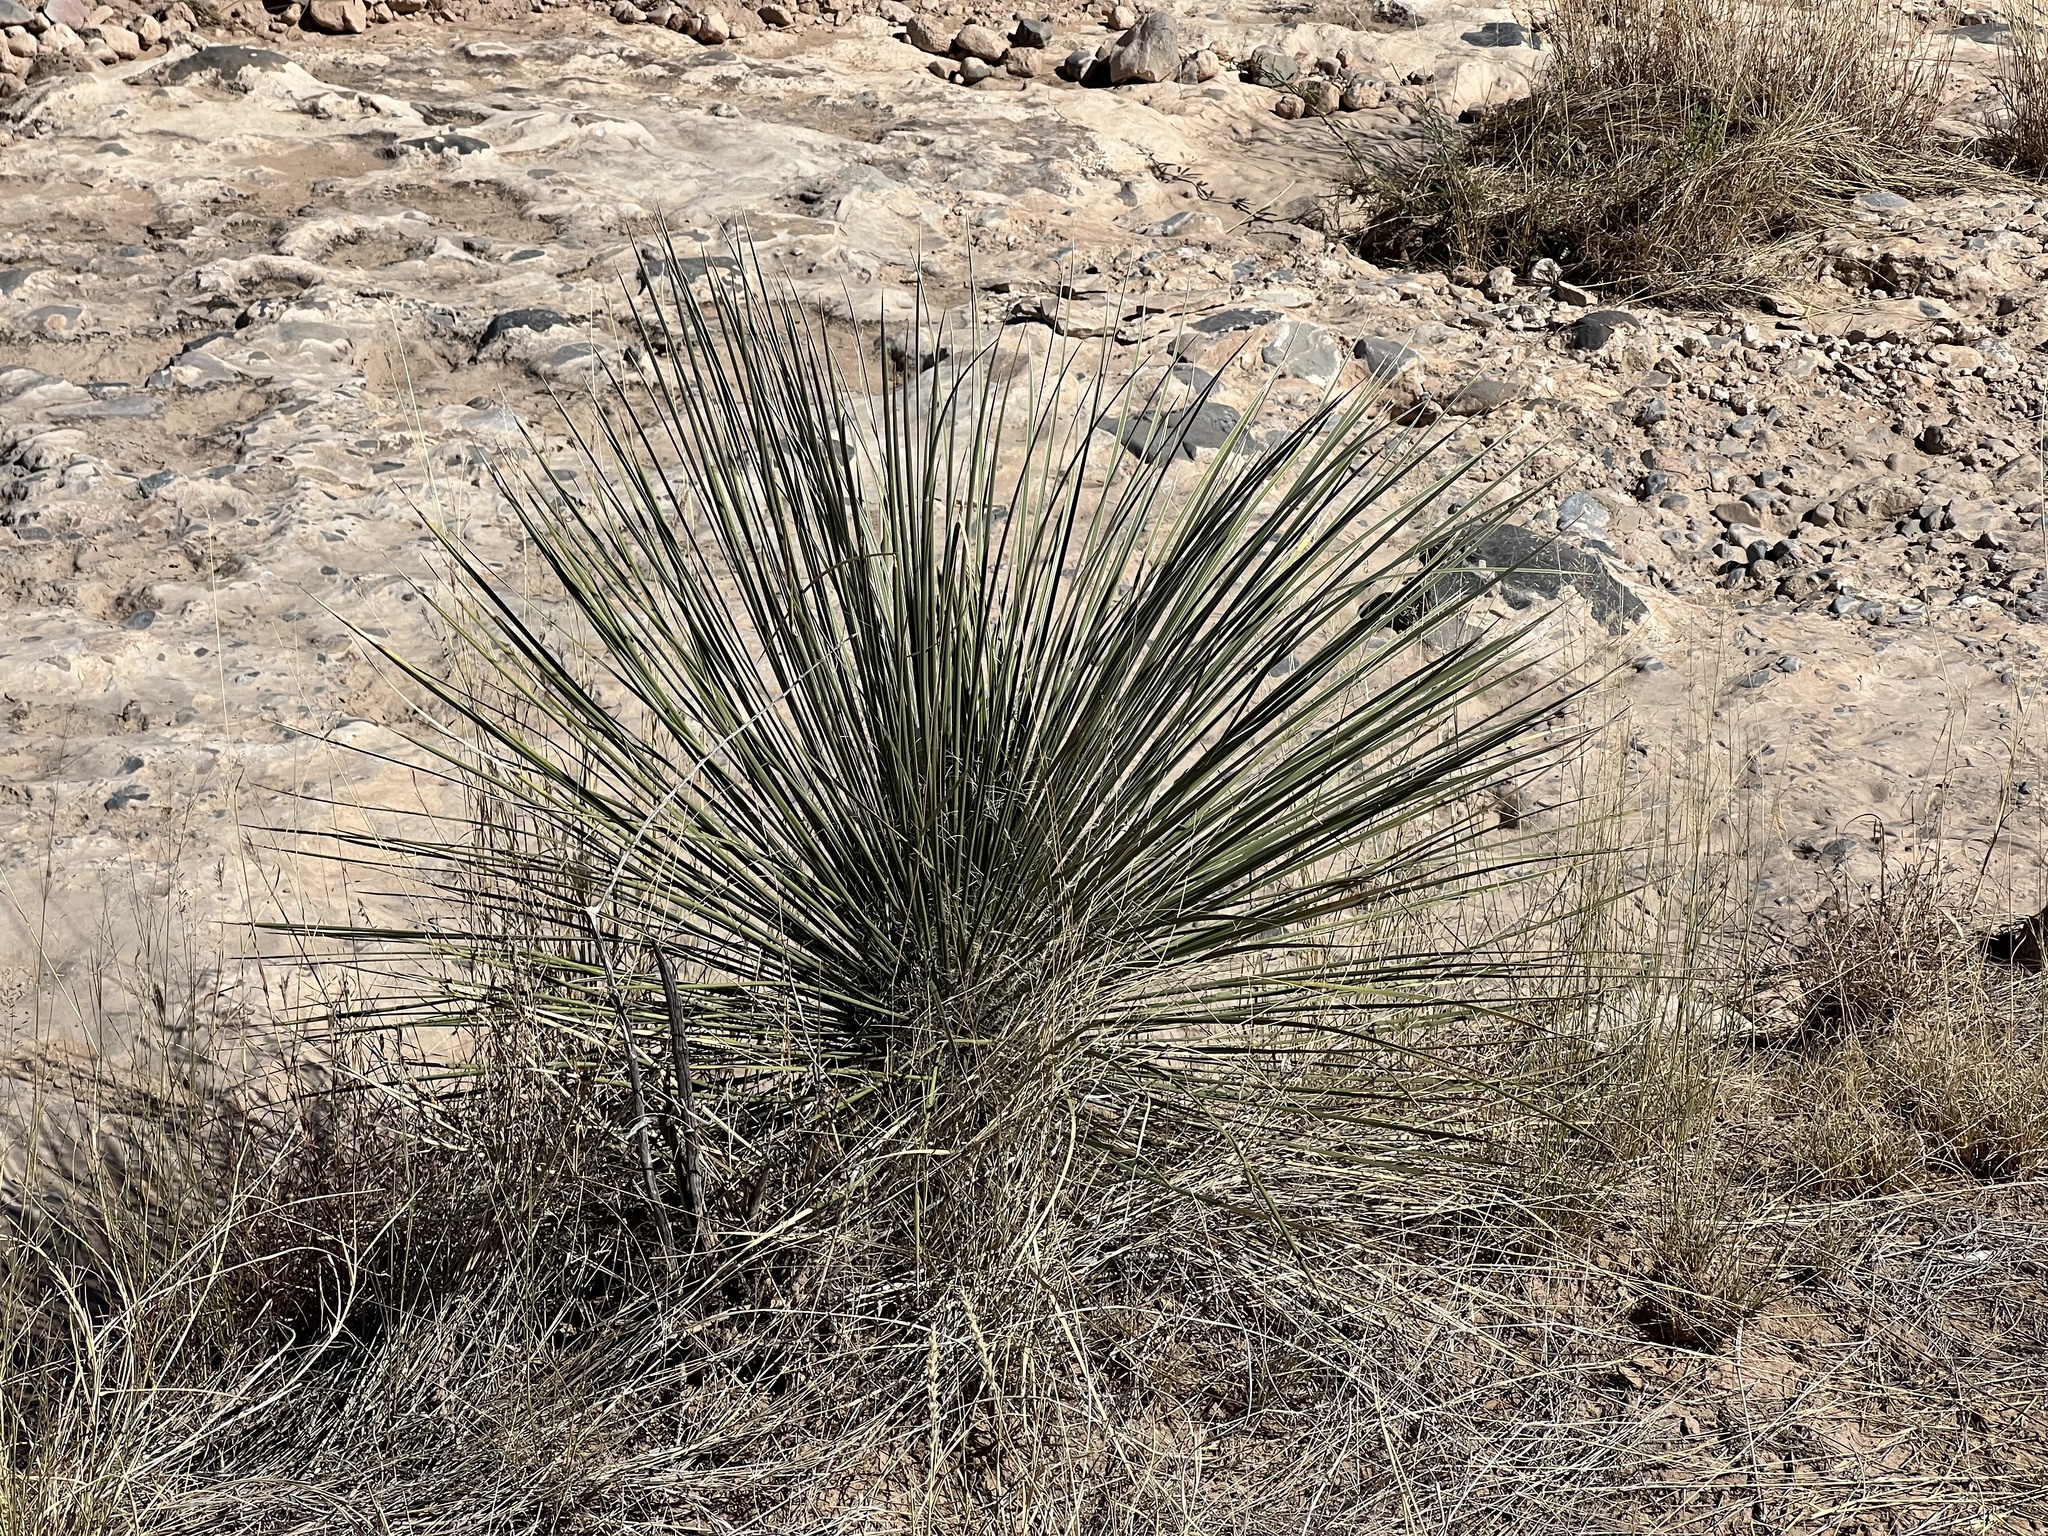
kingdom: Plantae
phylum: Tracheophyta
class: Liliopsida
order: Asparagales
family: Asparagaceae
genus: Yucca
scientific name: Yucca elata
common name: Palmella
